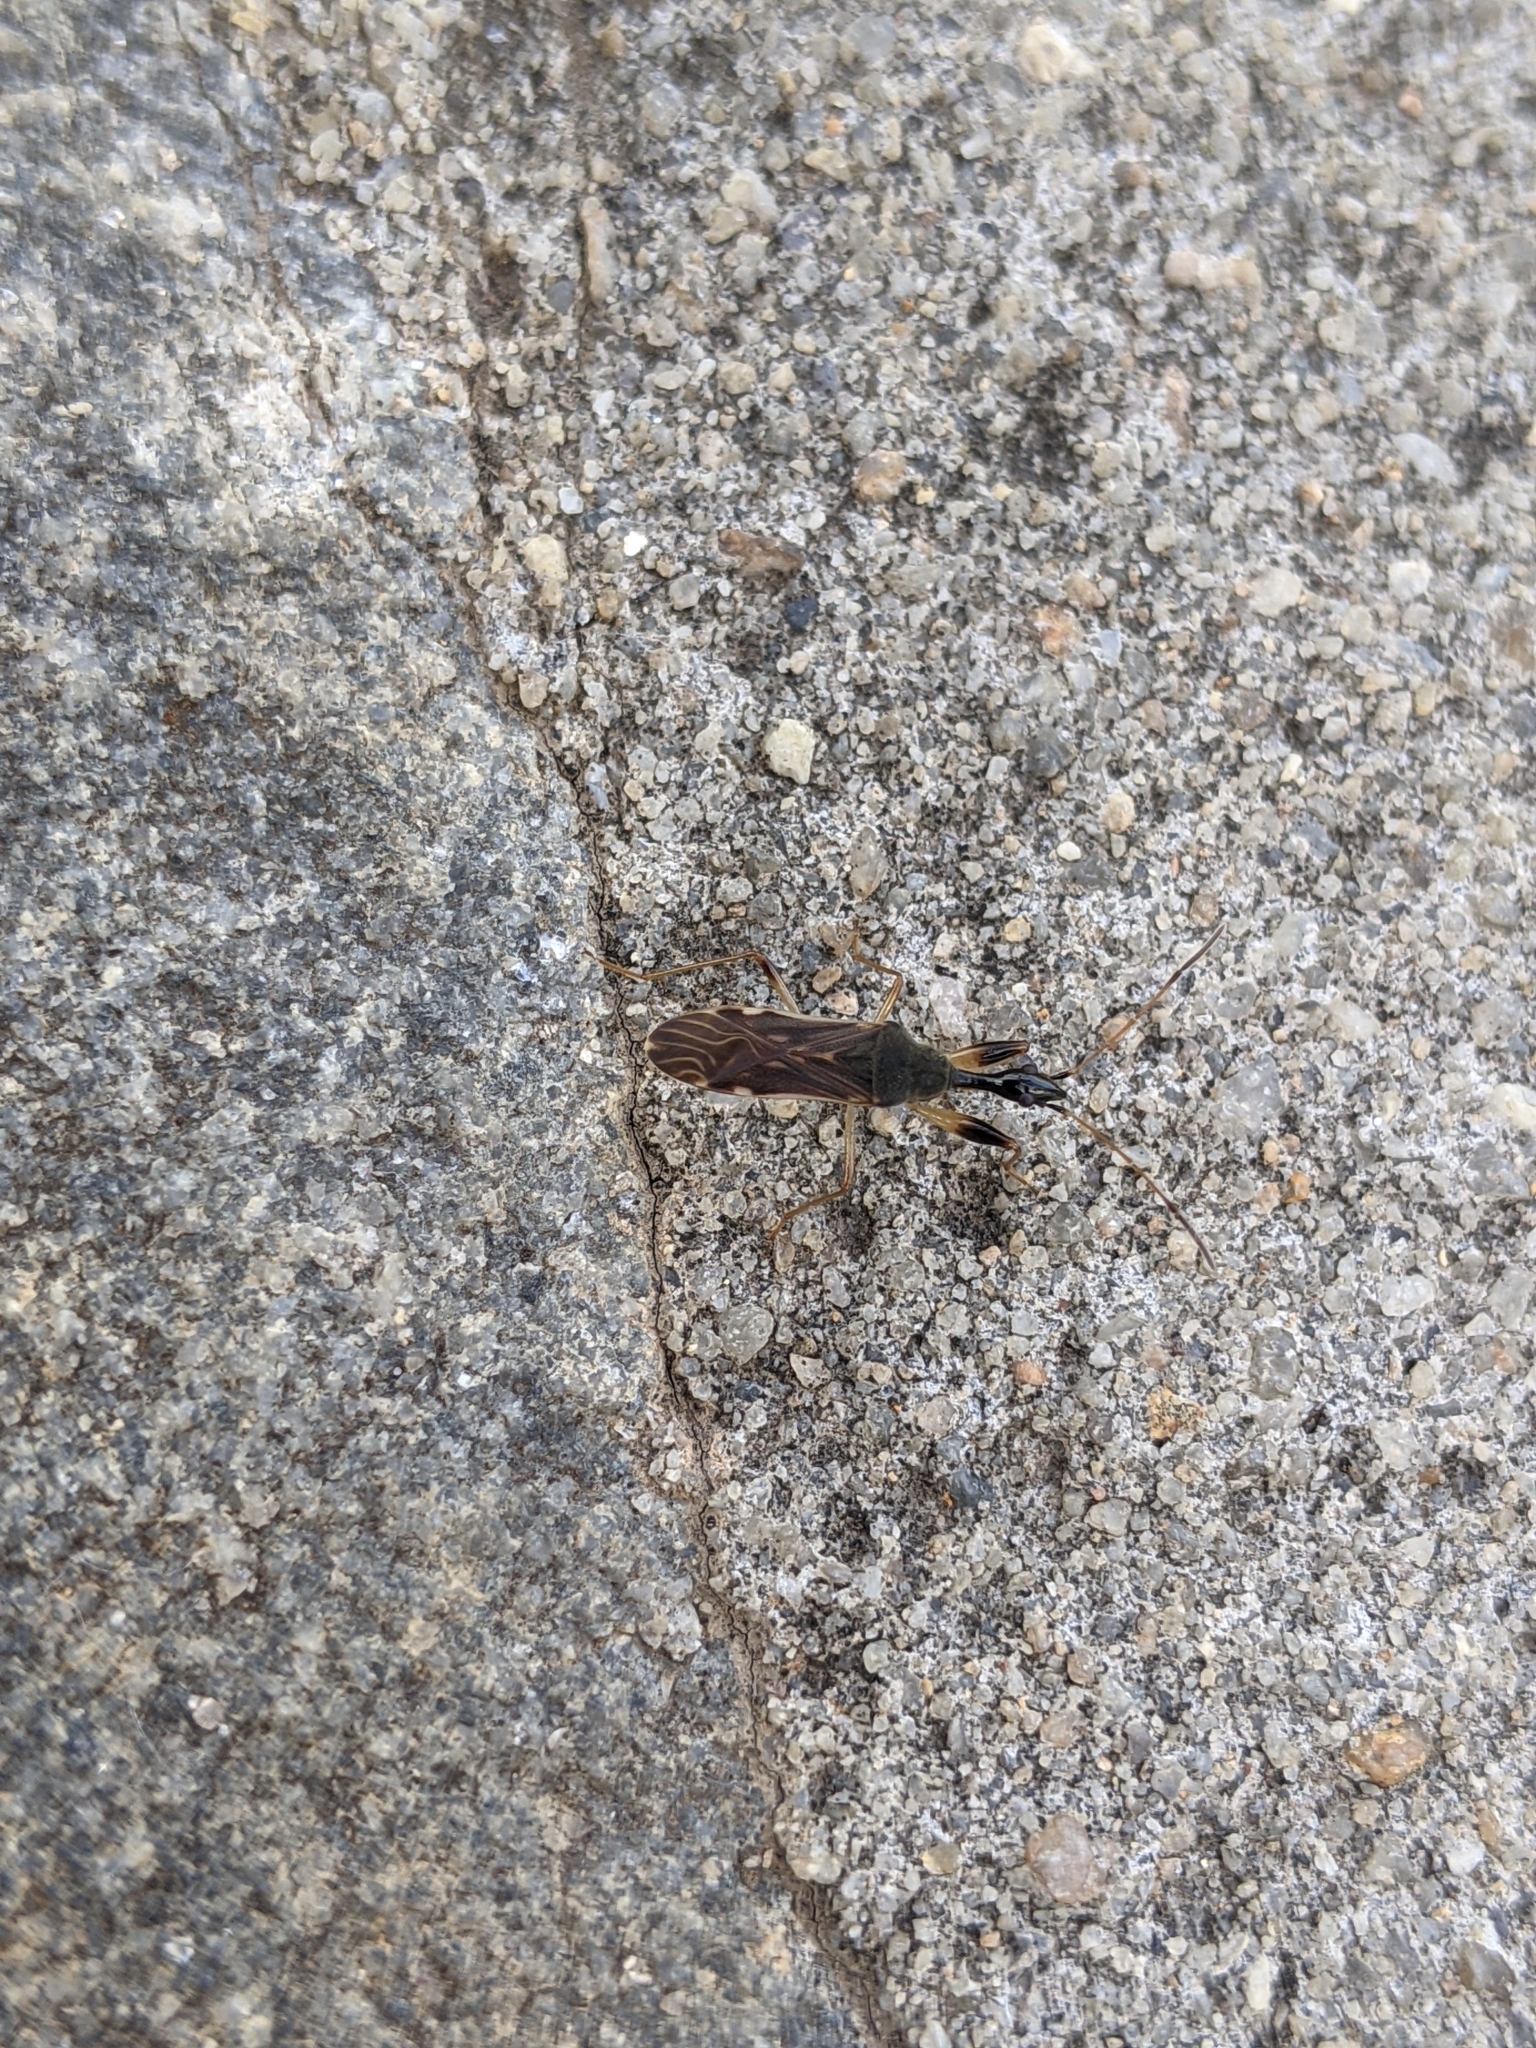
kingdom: Animalia
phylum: Arthropoda
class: Insecta
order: Hemiptera
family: Rhyparochromidae
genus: Myodocha
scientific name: Myodocha serripes
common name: Long-necked seed bug
